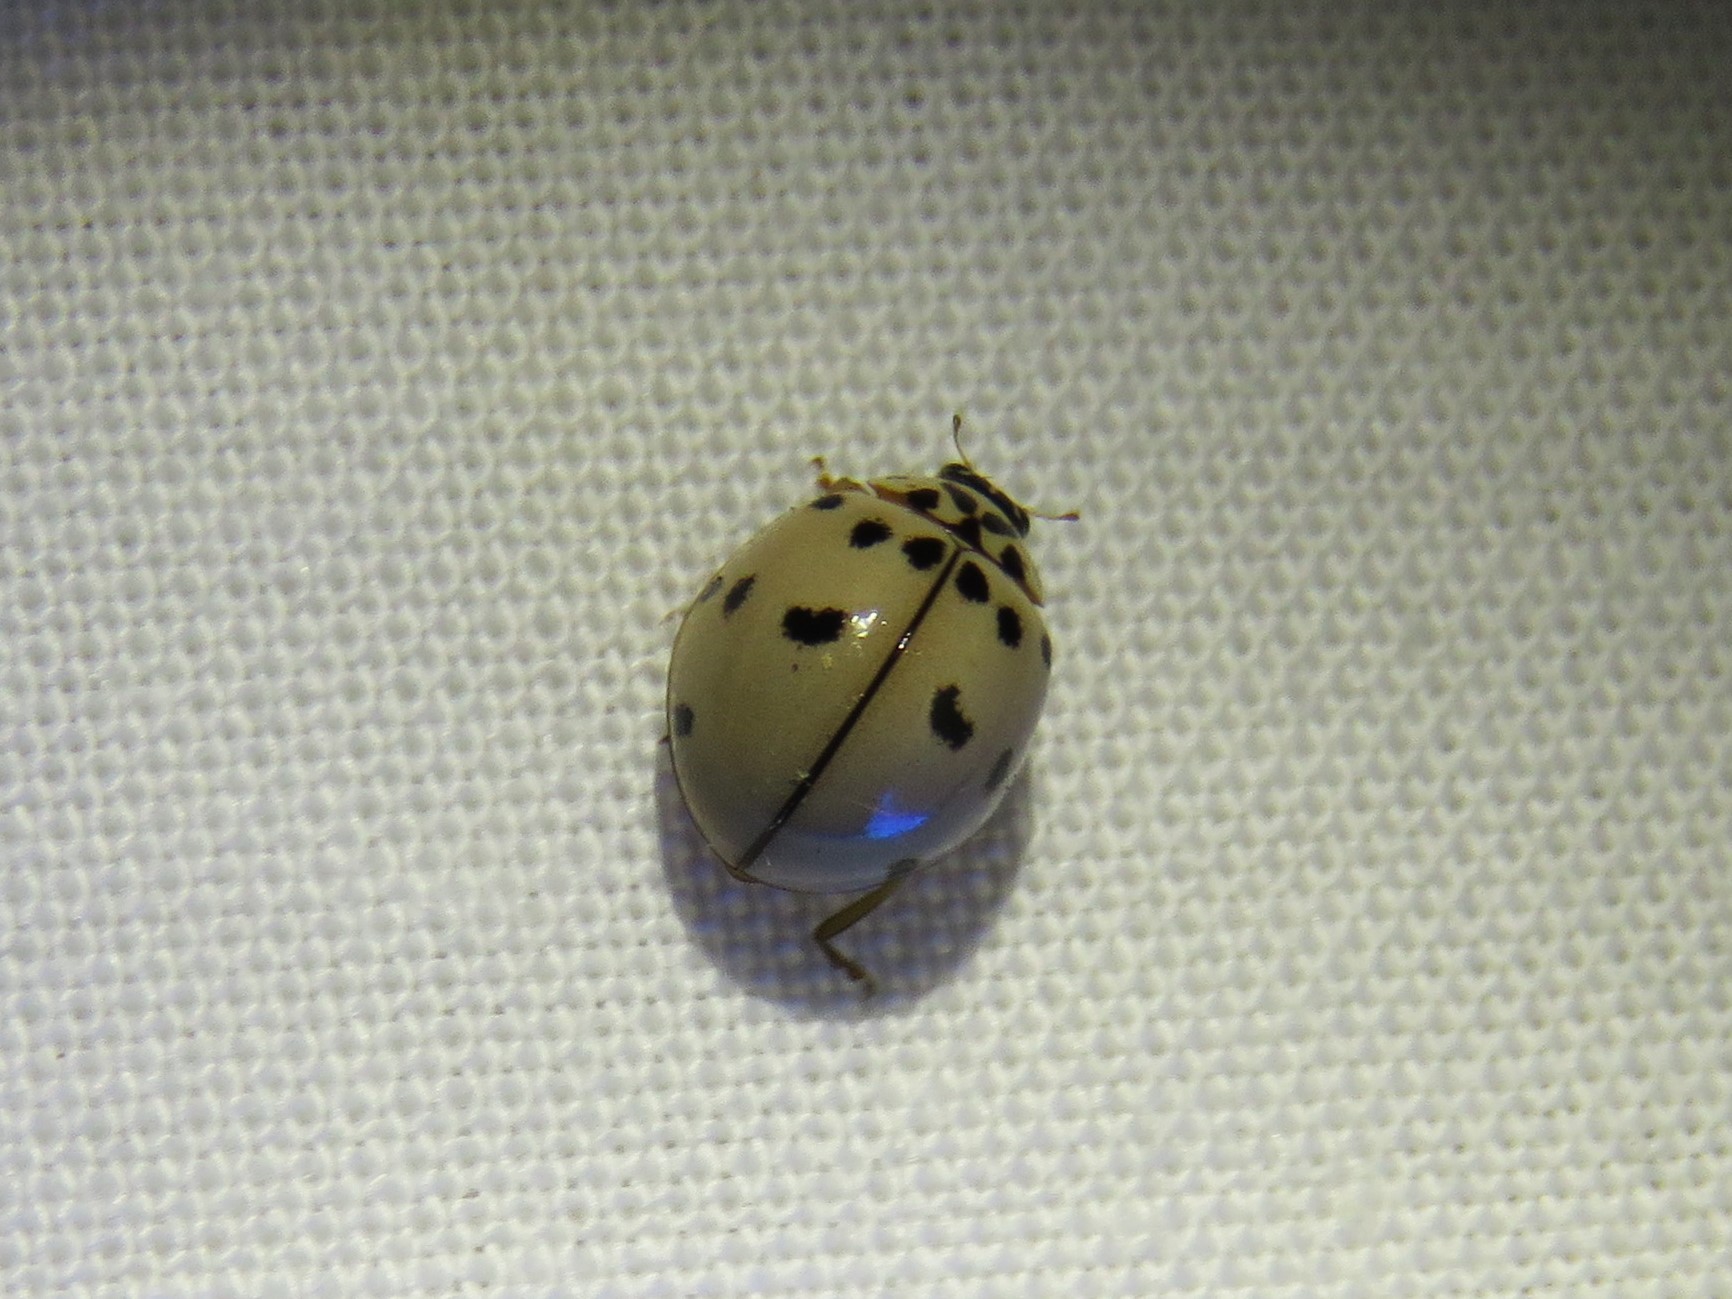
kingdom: Animalia
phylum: Arthropoda
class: Insecta
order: Coleoptera
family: Coccinellidae
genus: Olla
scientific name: Olla v-nigrum
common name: Ashy gray lady beetle
